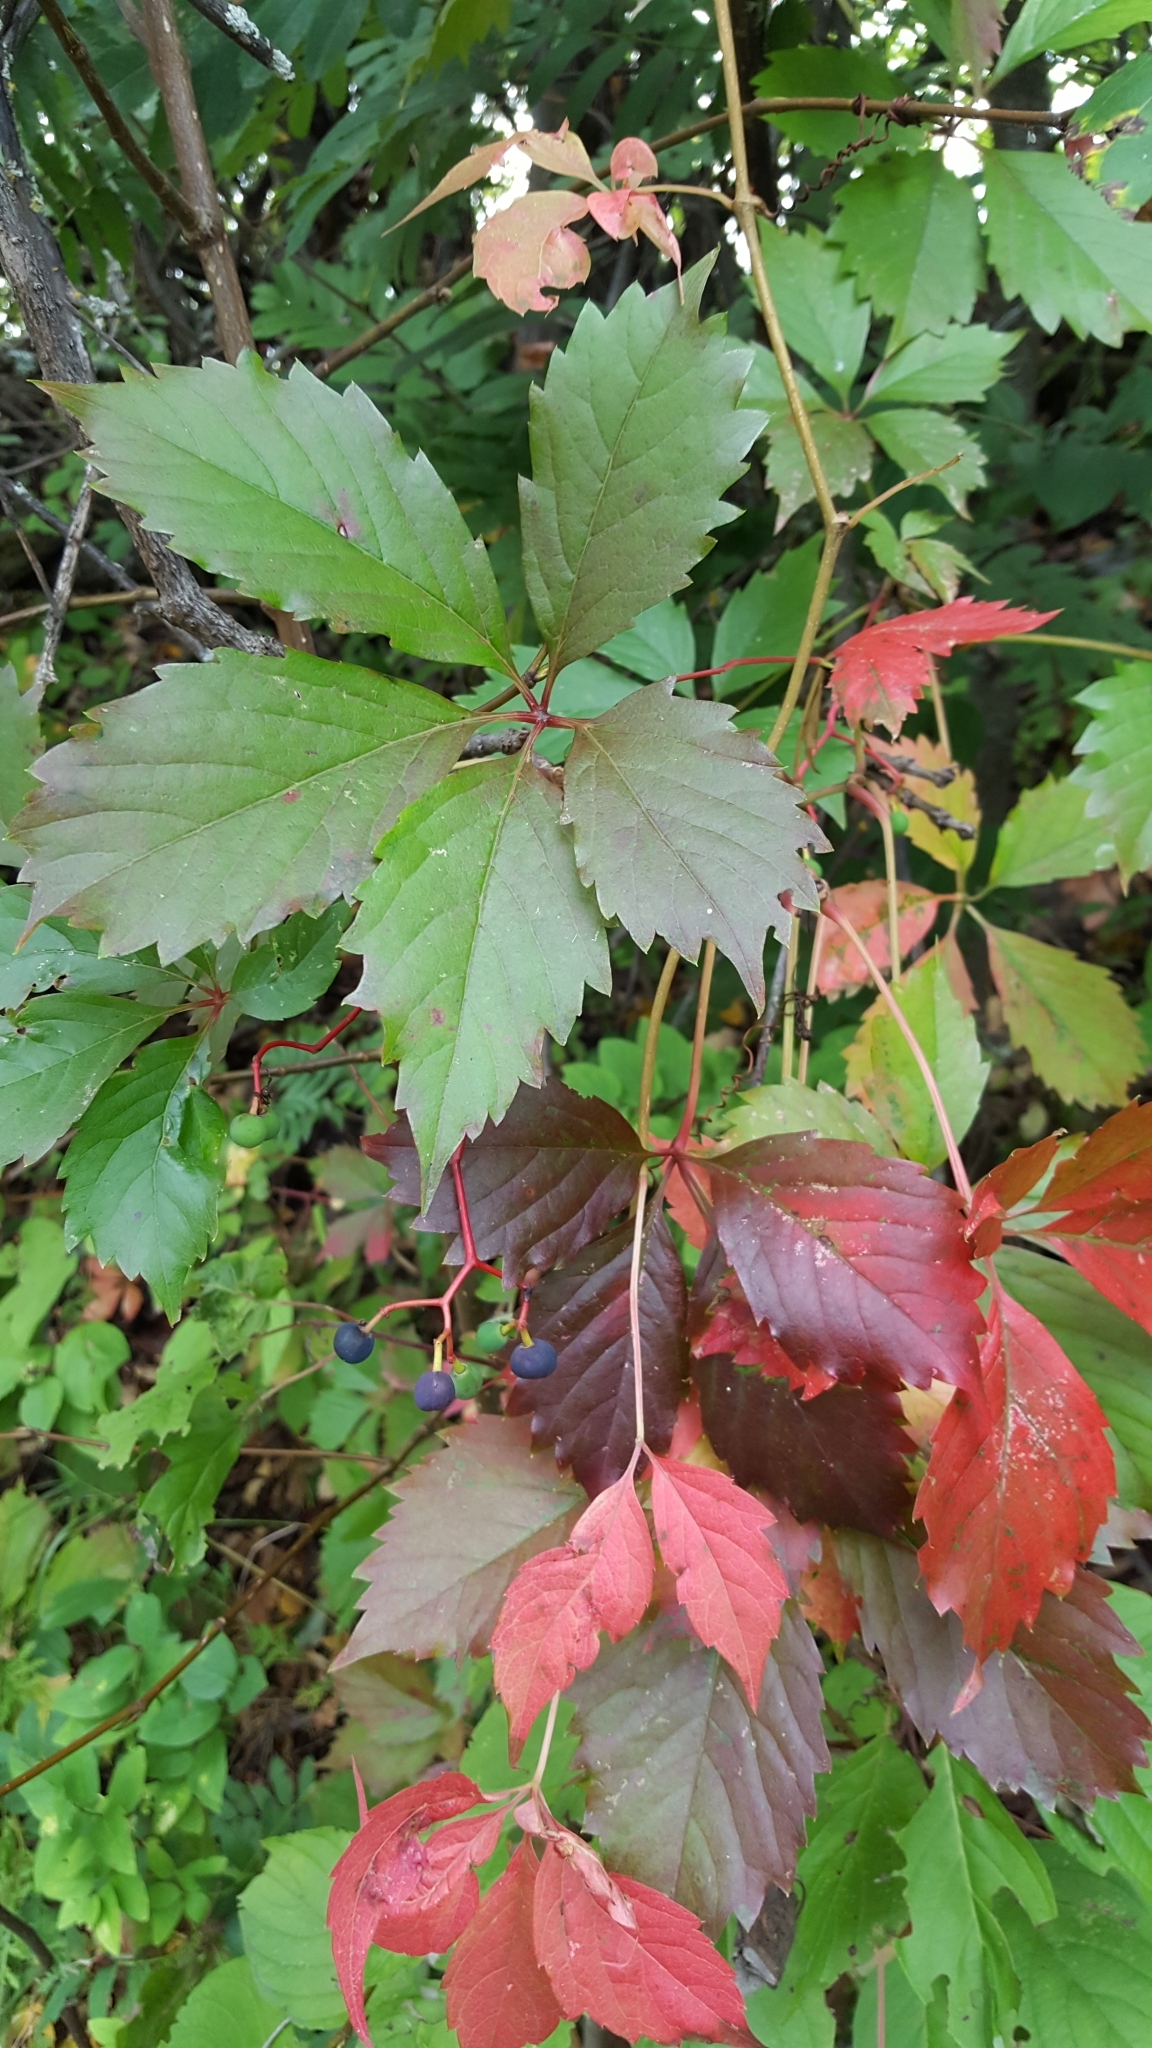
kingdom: Plantae
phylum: Tracheophyta
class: Magnoliopsida
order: Vitales
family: Vitaceae
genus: Parthenocissus
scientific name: Parthenocissus inserta
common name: False virginia-creeper
